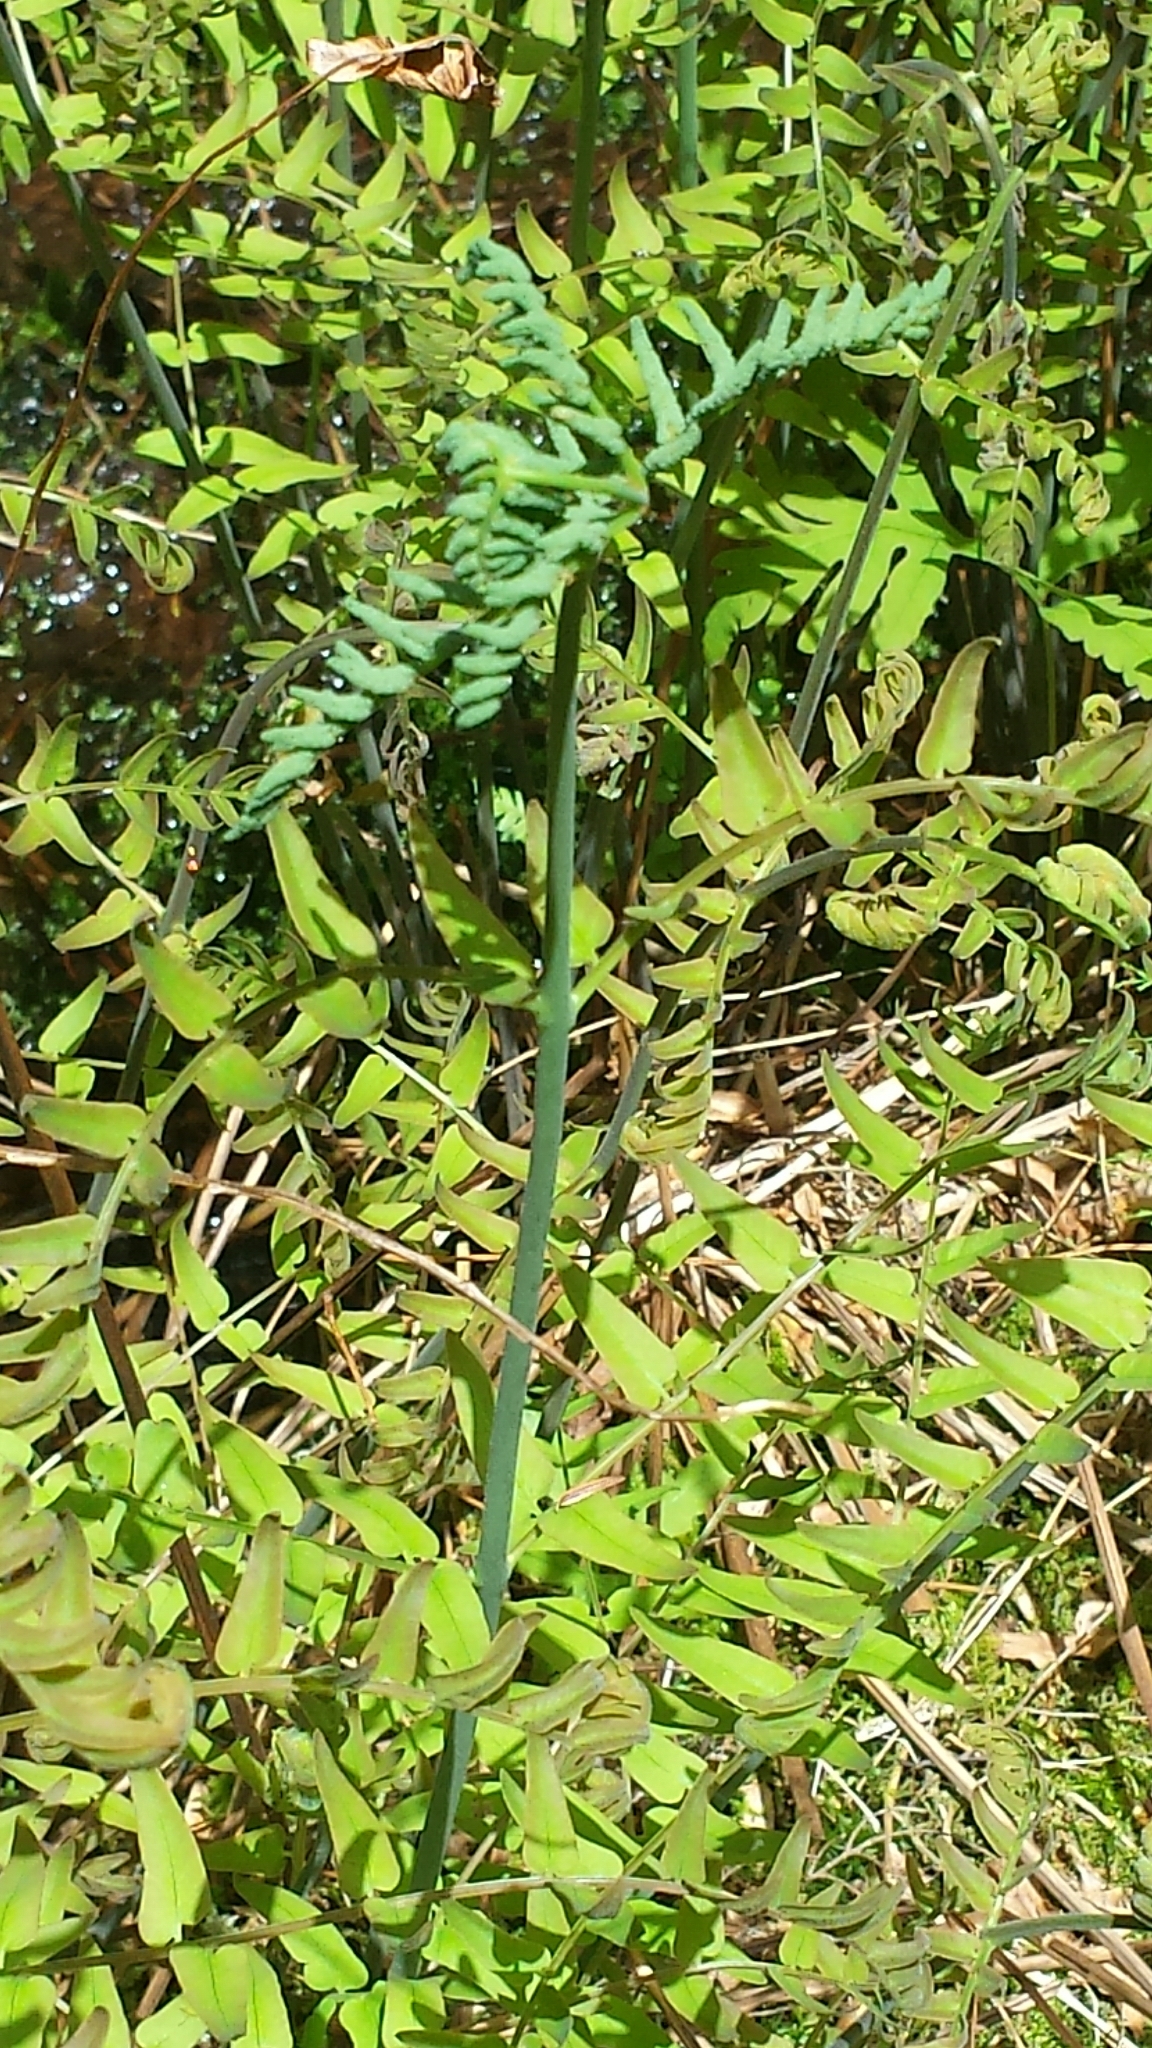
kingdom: Plantae
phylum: Tracheophyta
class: Polypodiopsida
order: Osmundales
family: Osmundaceae
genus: Osmunda
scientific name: Osmunda spectabilis
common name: American royal fern
